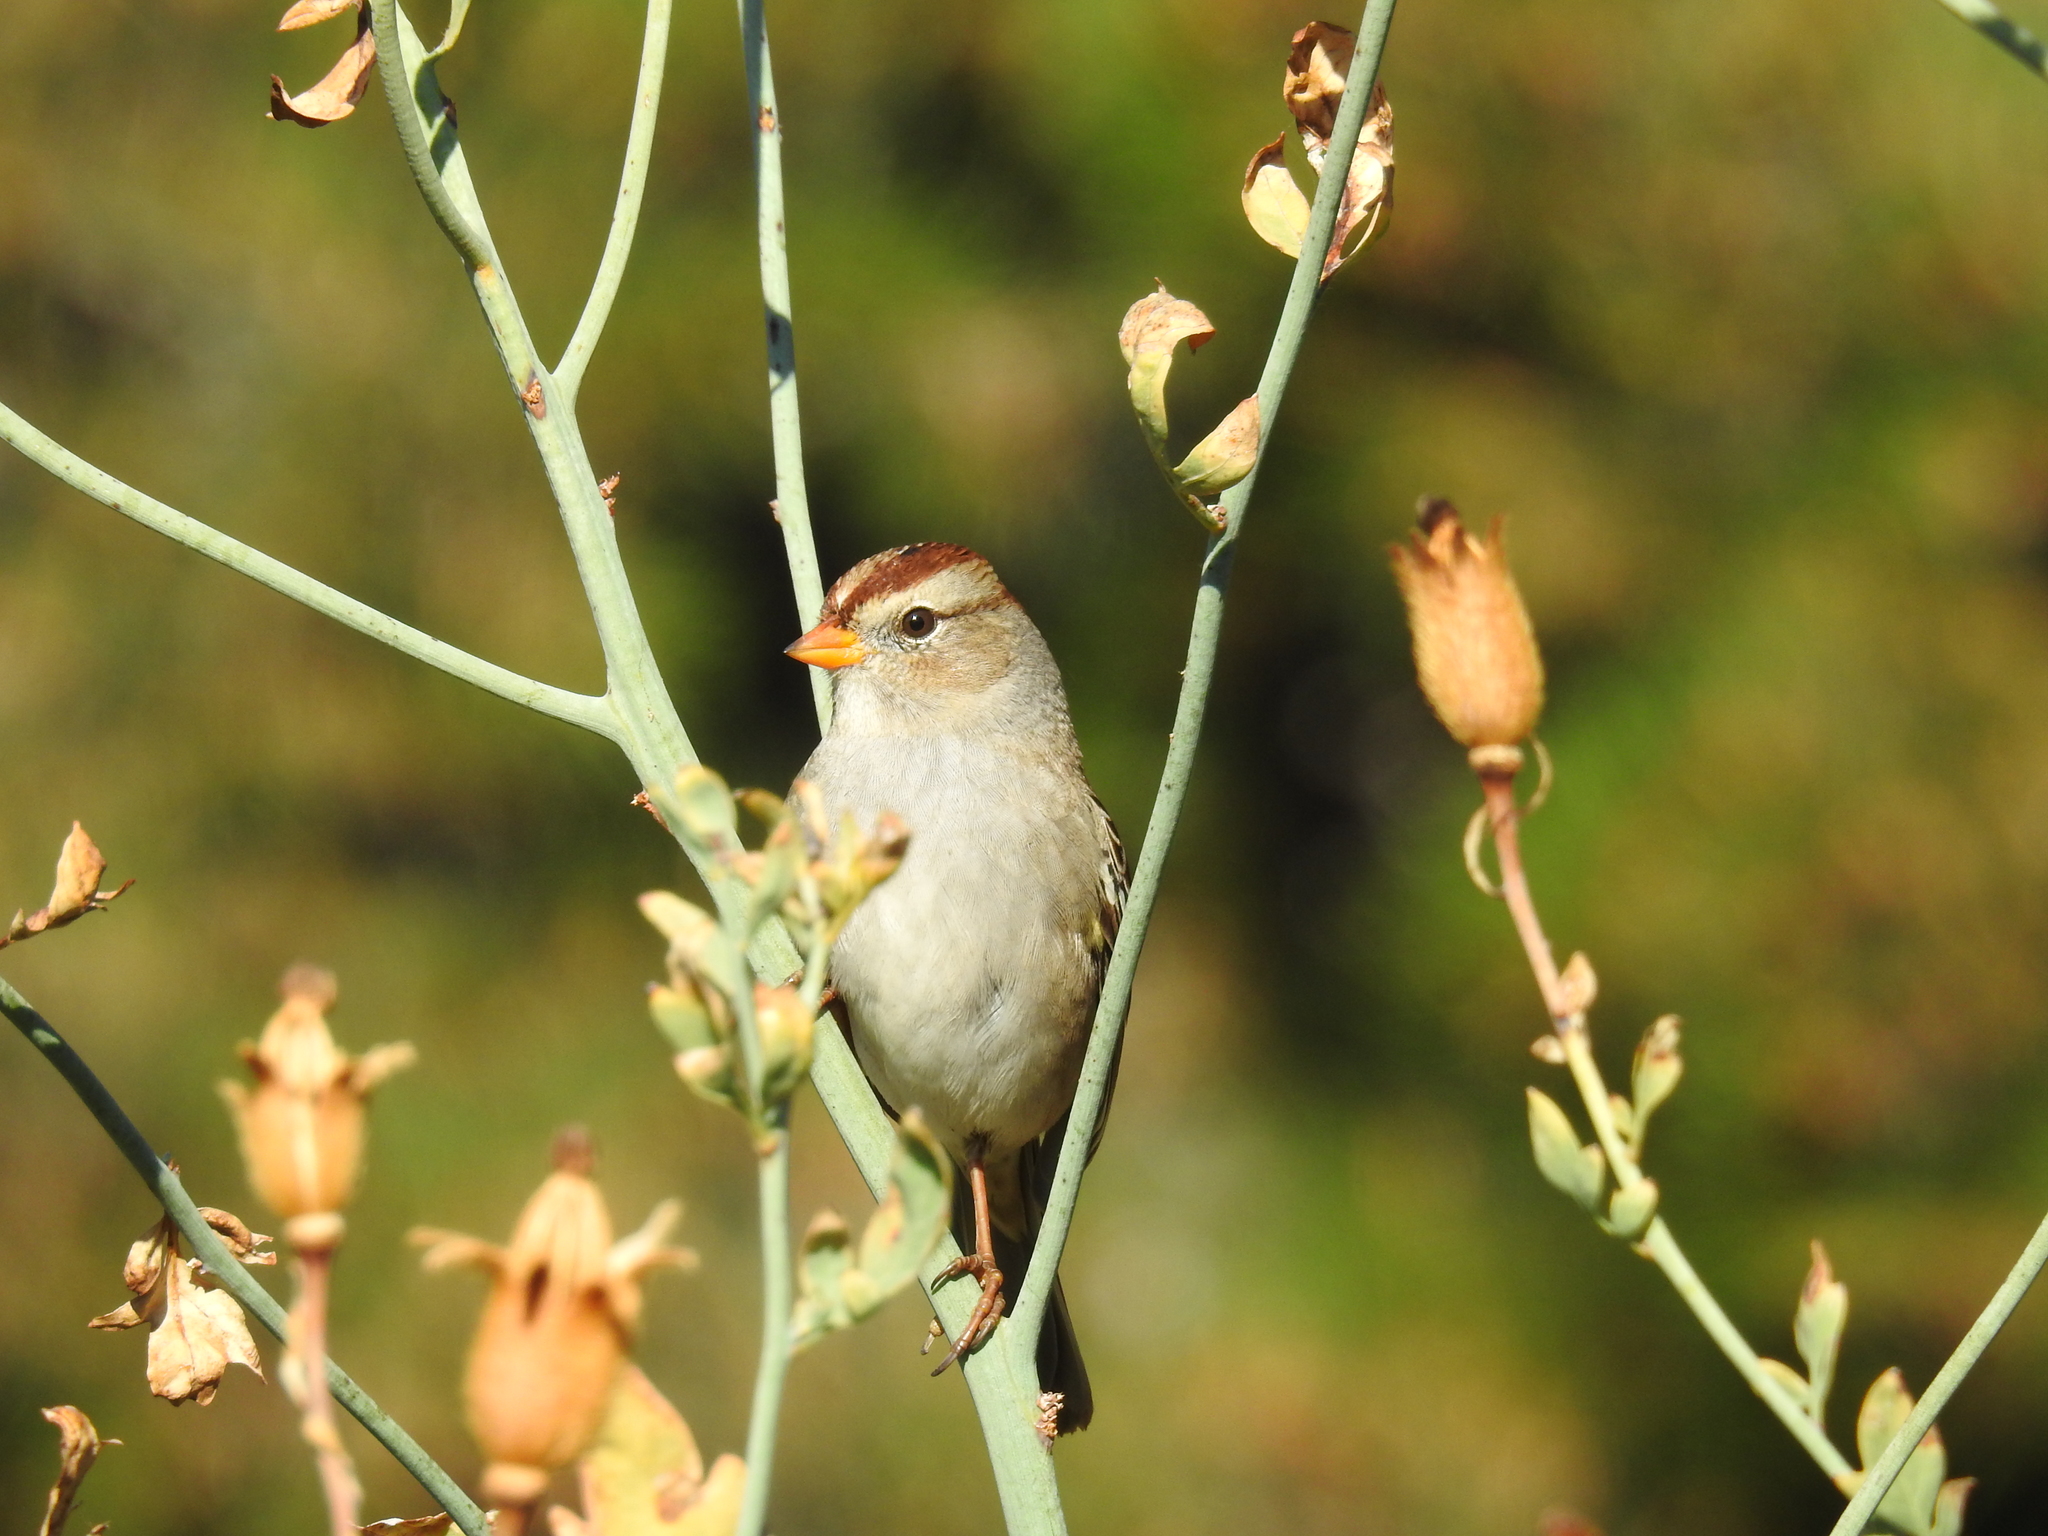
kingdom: Animalia
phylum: Chordata
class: Aves
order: Passeriformes
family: Passerellidae
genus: Zonotrichia
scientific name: Zonotrichia leucophrys
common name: White-crowned sparrow
